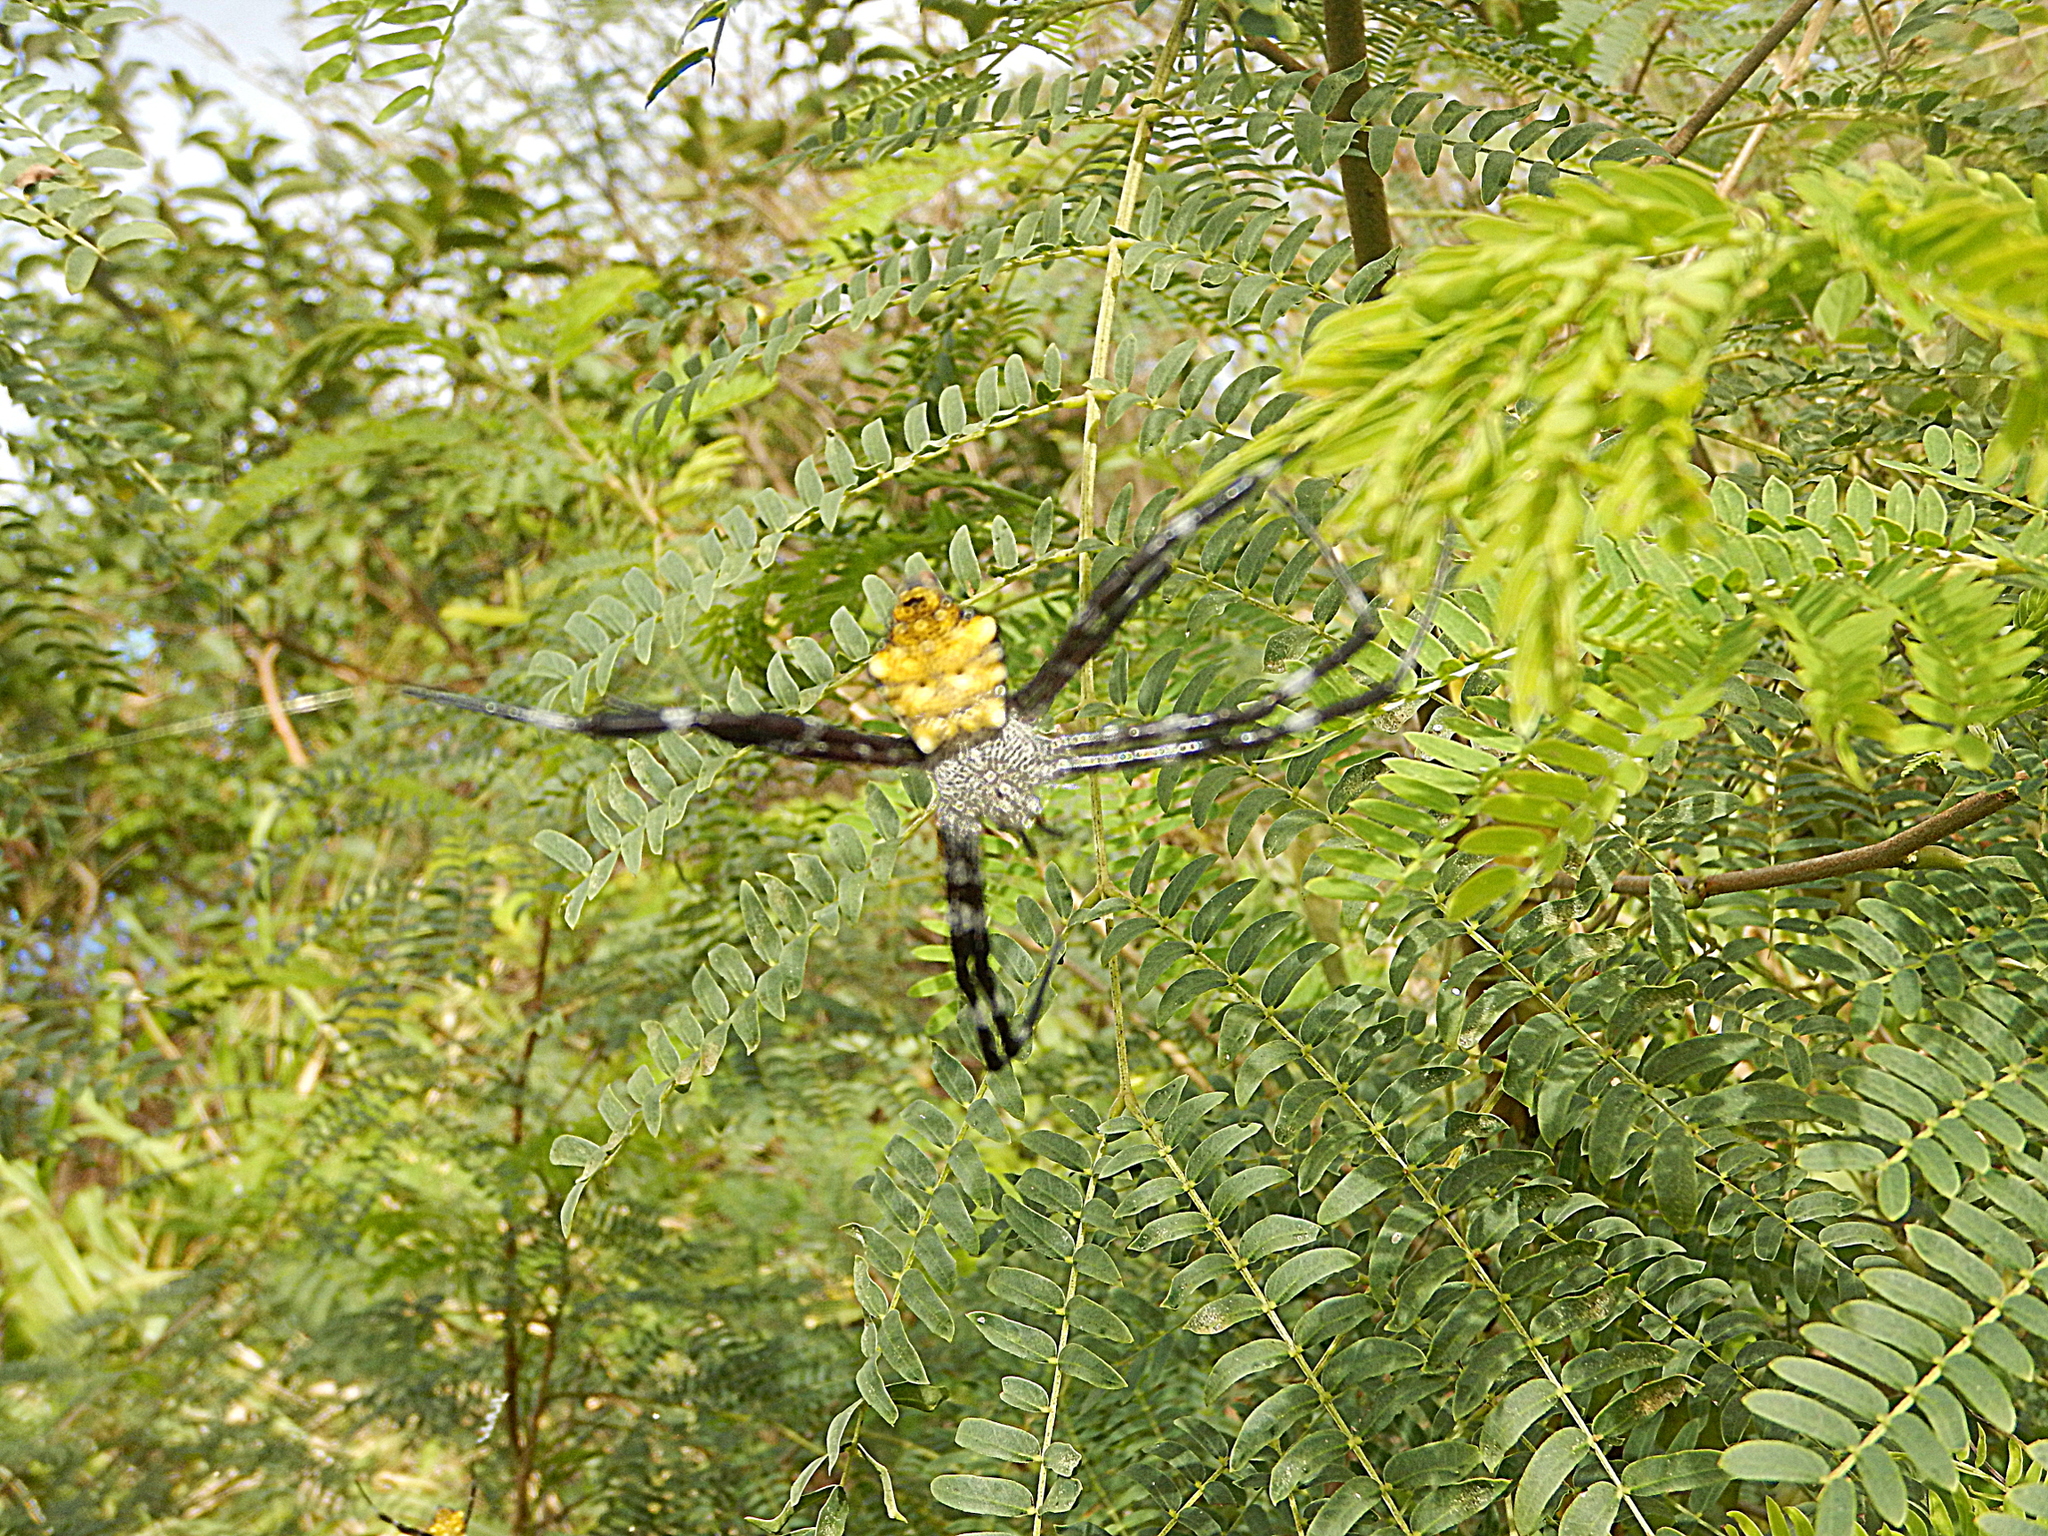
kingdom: Animalia
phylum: Arthropoda
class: Arachnida
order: Araneae
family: Araneidae
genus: Argiope
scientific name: Argiope appensa
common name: Garden spider
